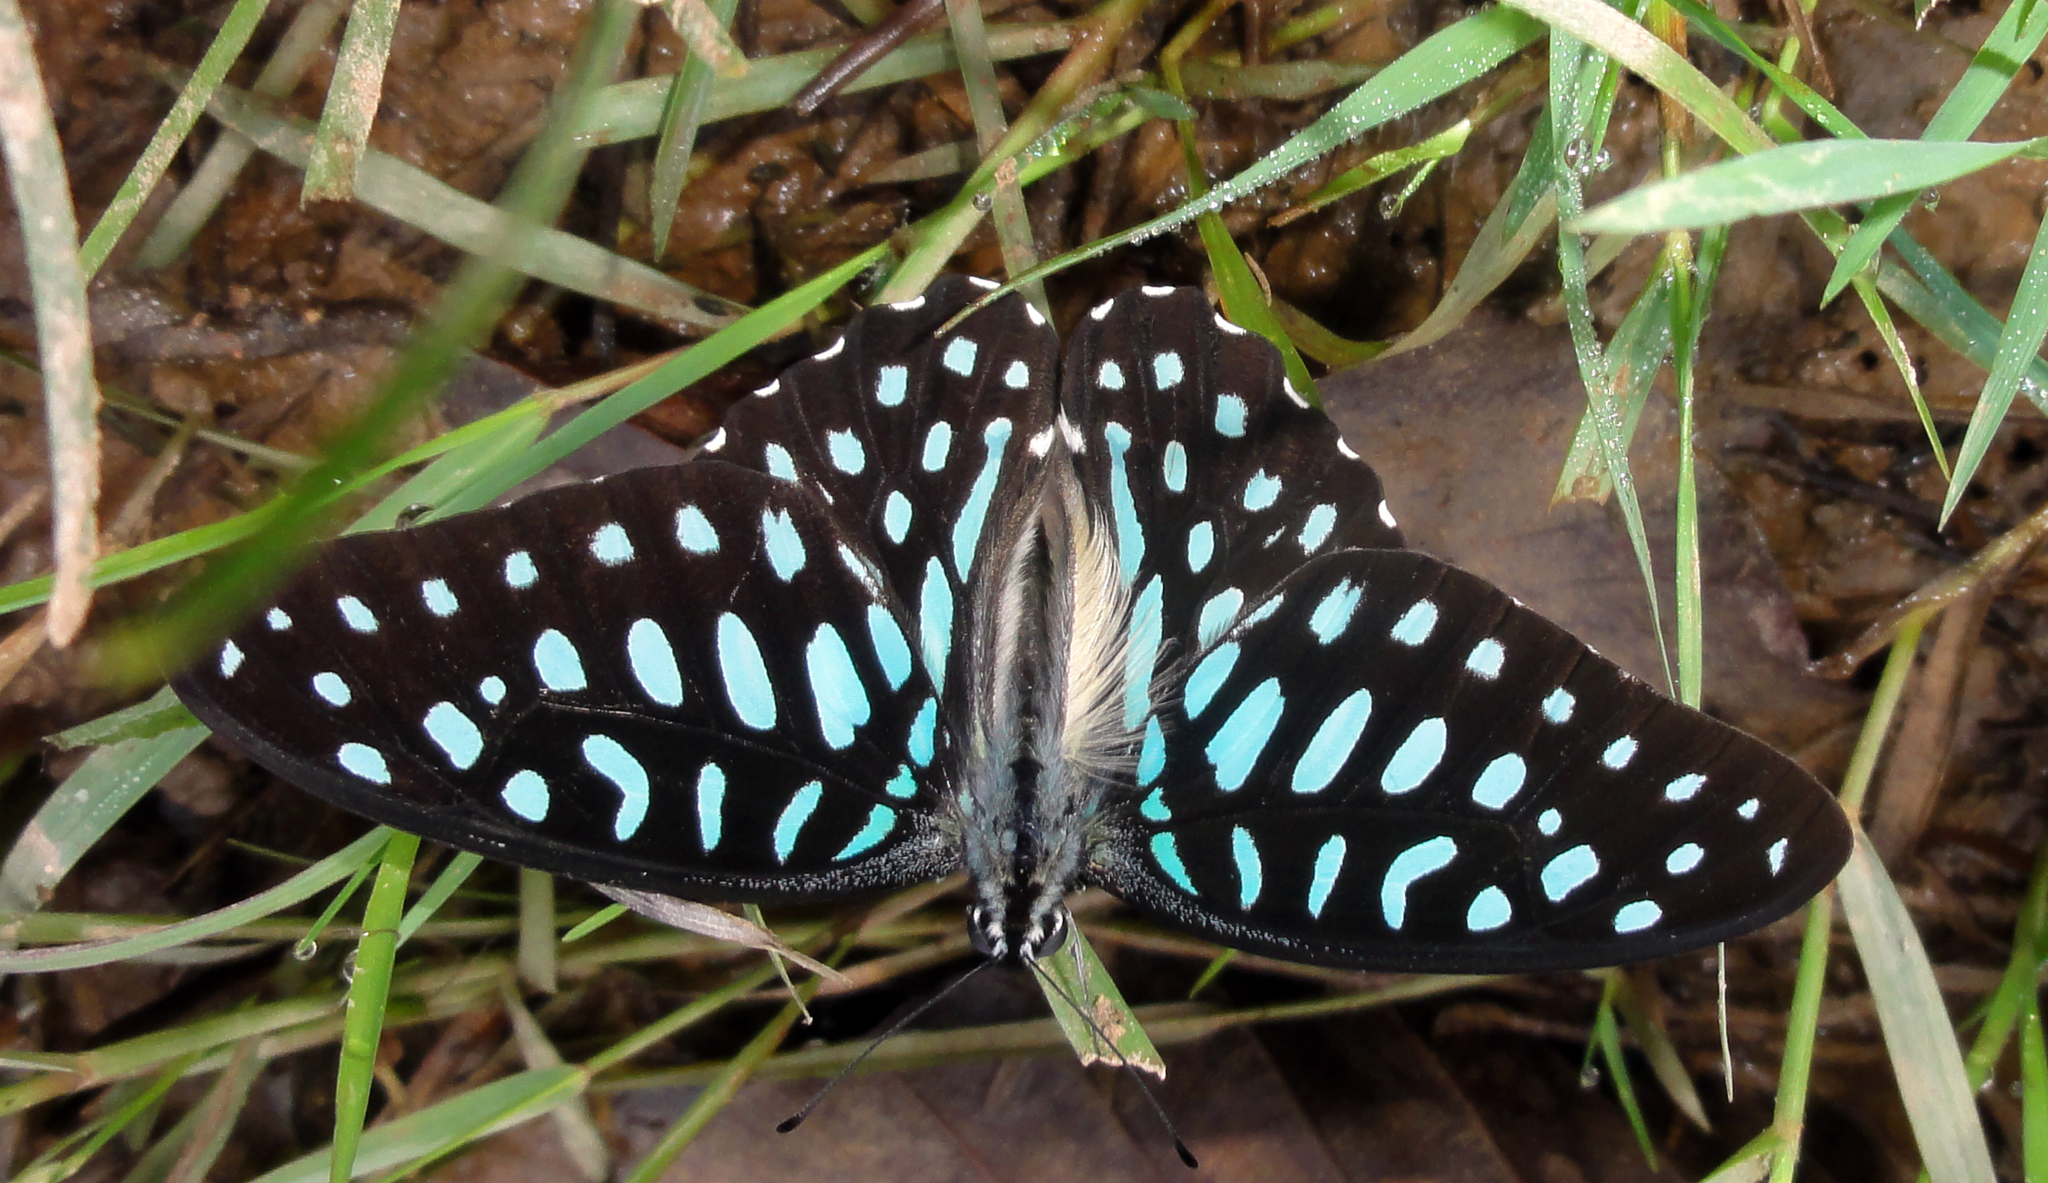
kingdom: Animalia
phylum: Arthropoda
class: Insecta
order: Lepidoptera
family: Papilionidae
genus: Graphium
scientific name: Graphium arycles
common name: Spotted jay
